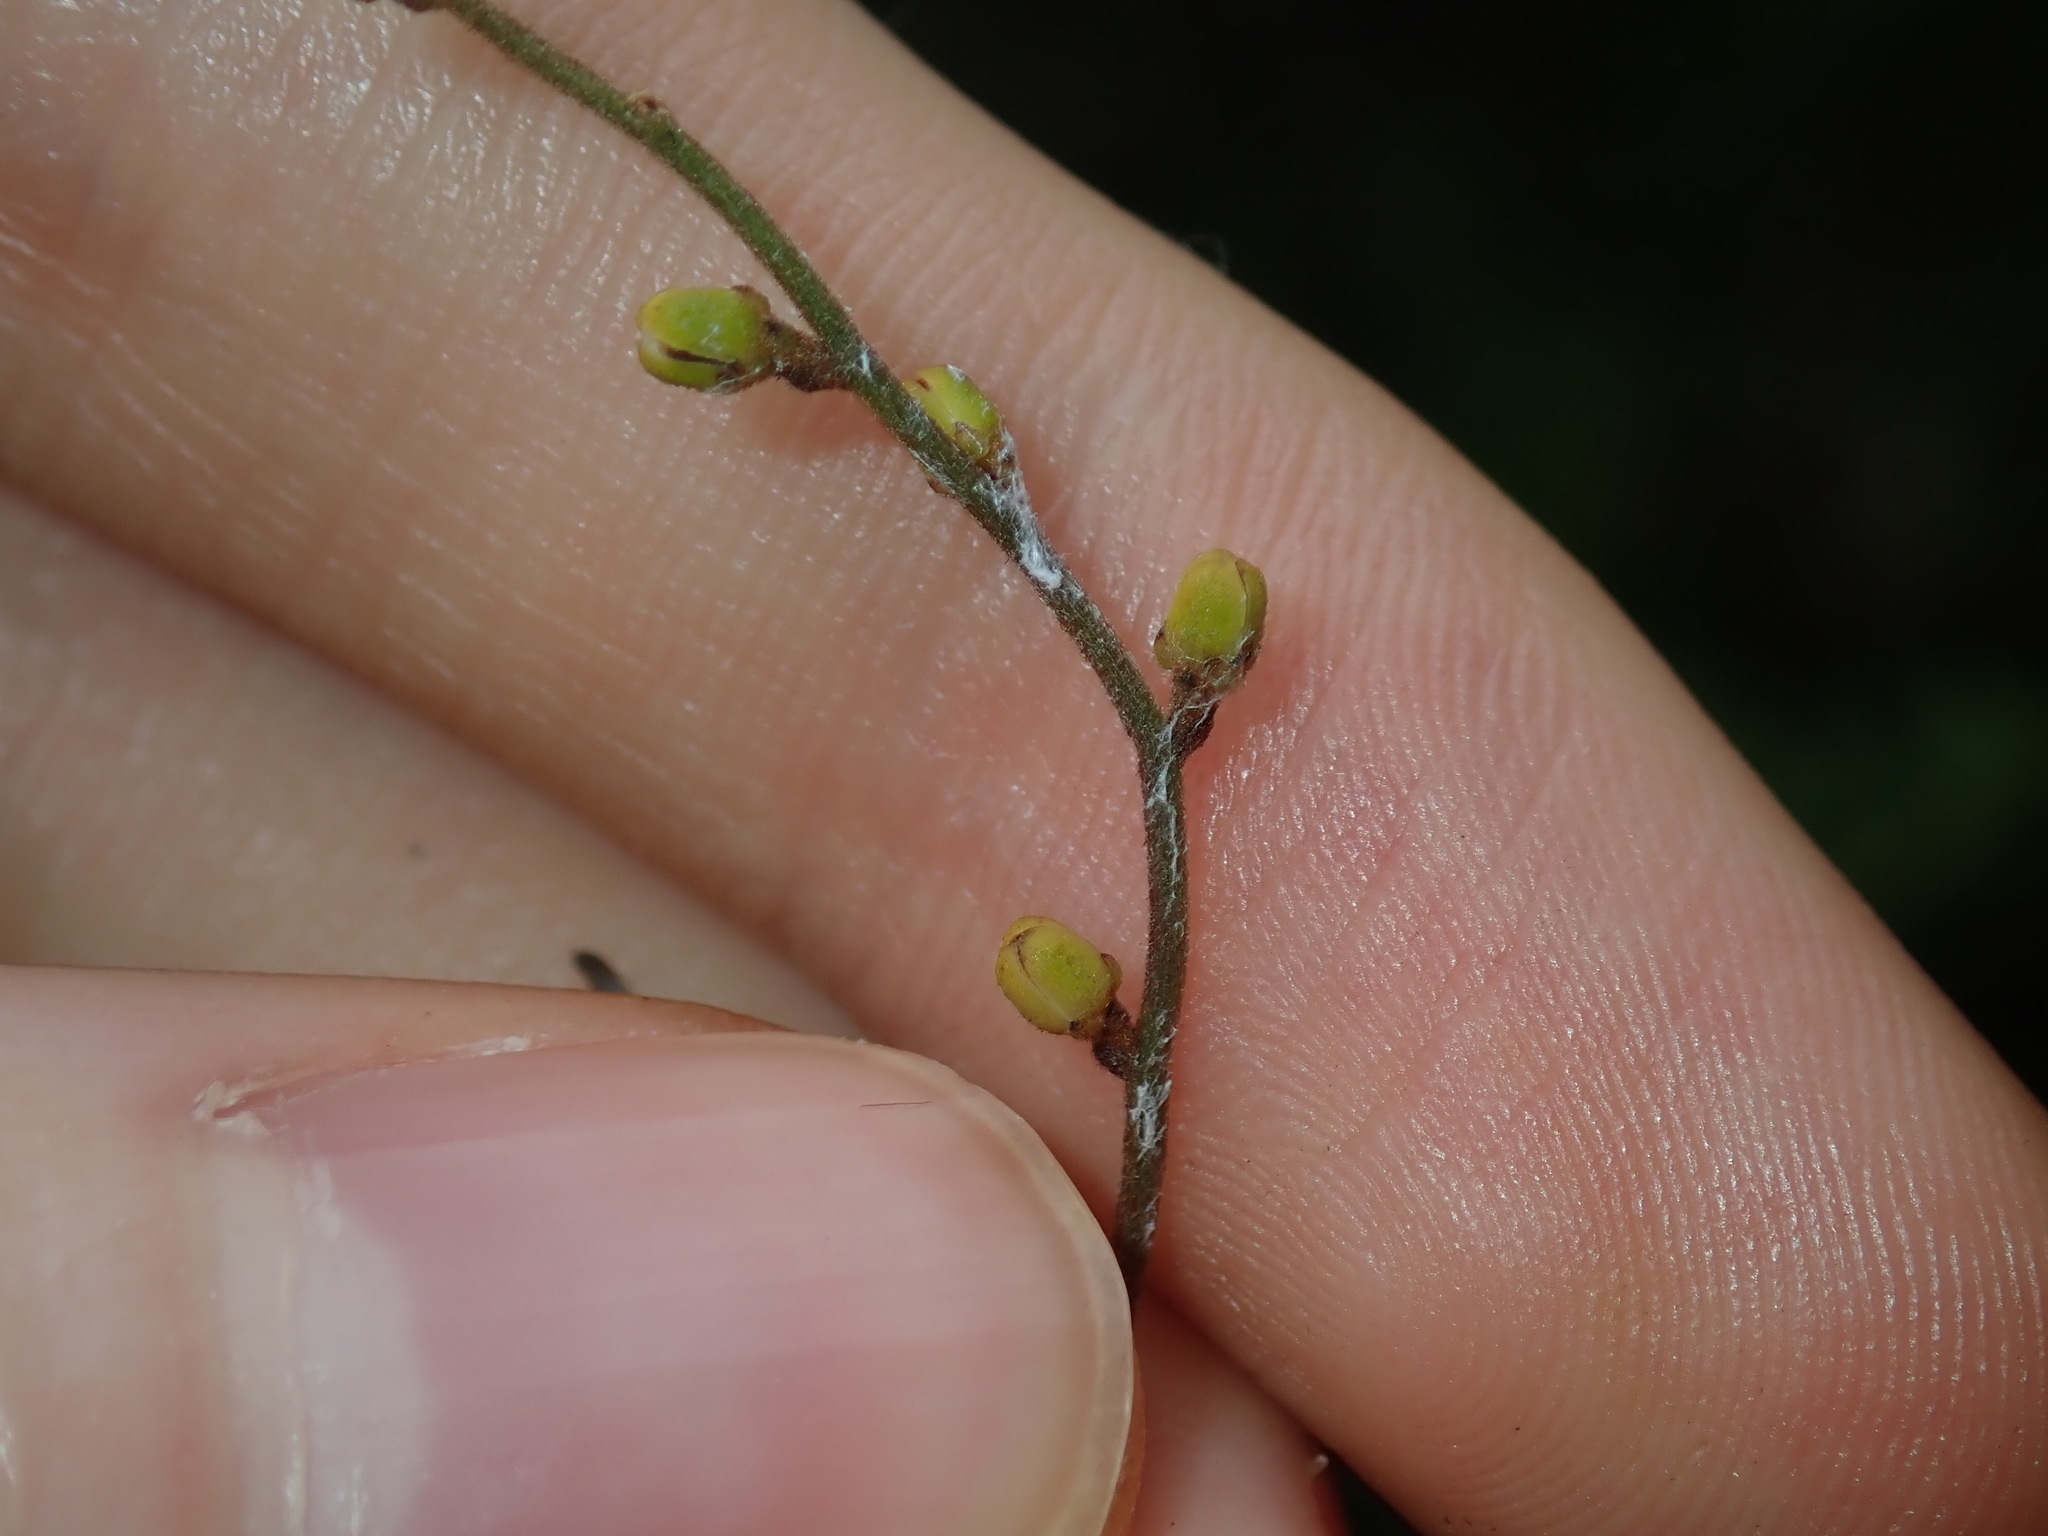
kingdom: Plantae
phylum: Tracheophyta
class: Magnoliopsida
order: Laurales
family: Lauraceae
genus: Cassytha
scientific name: Cassytha pubescens
